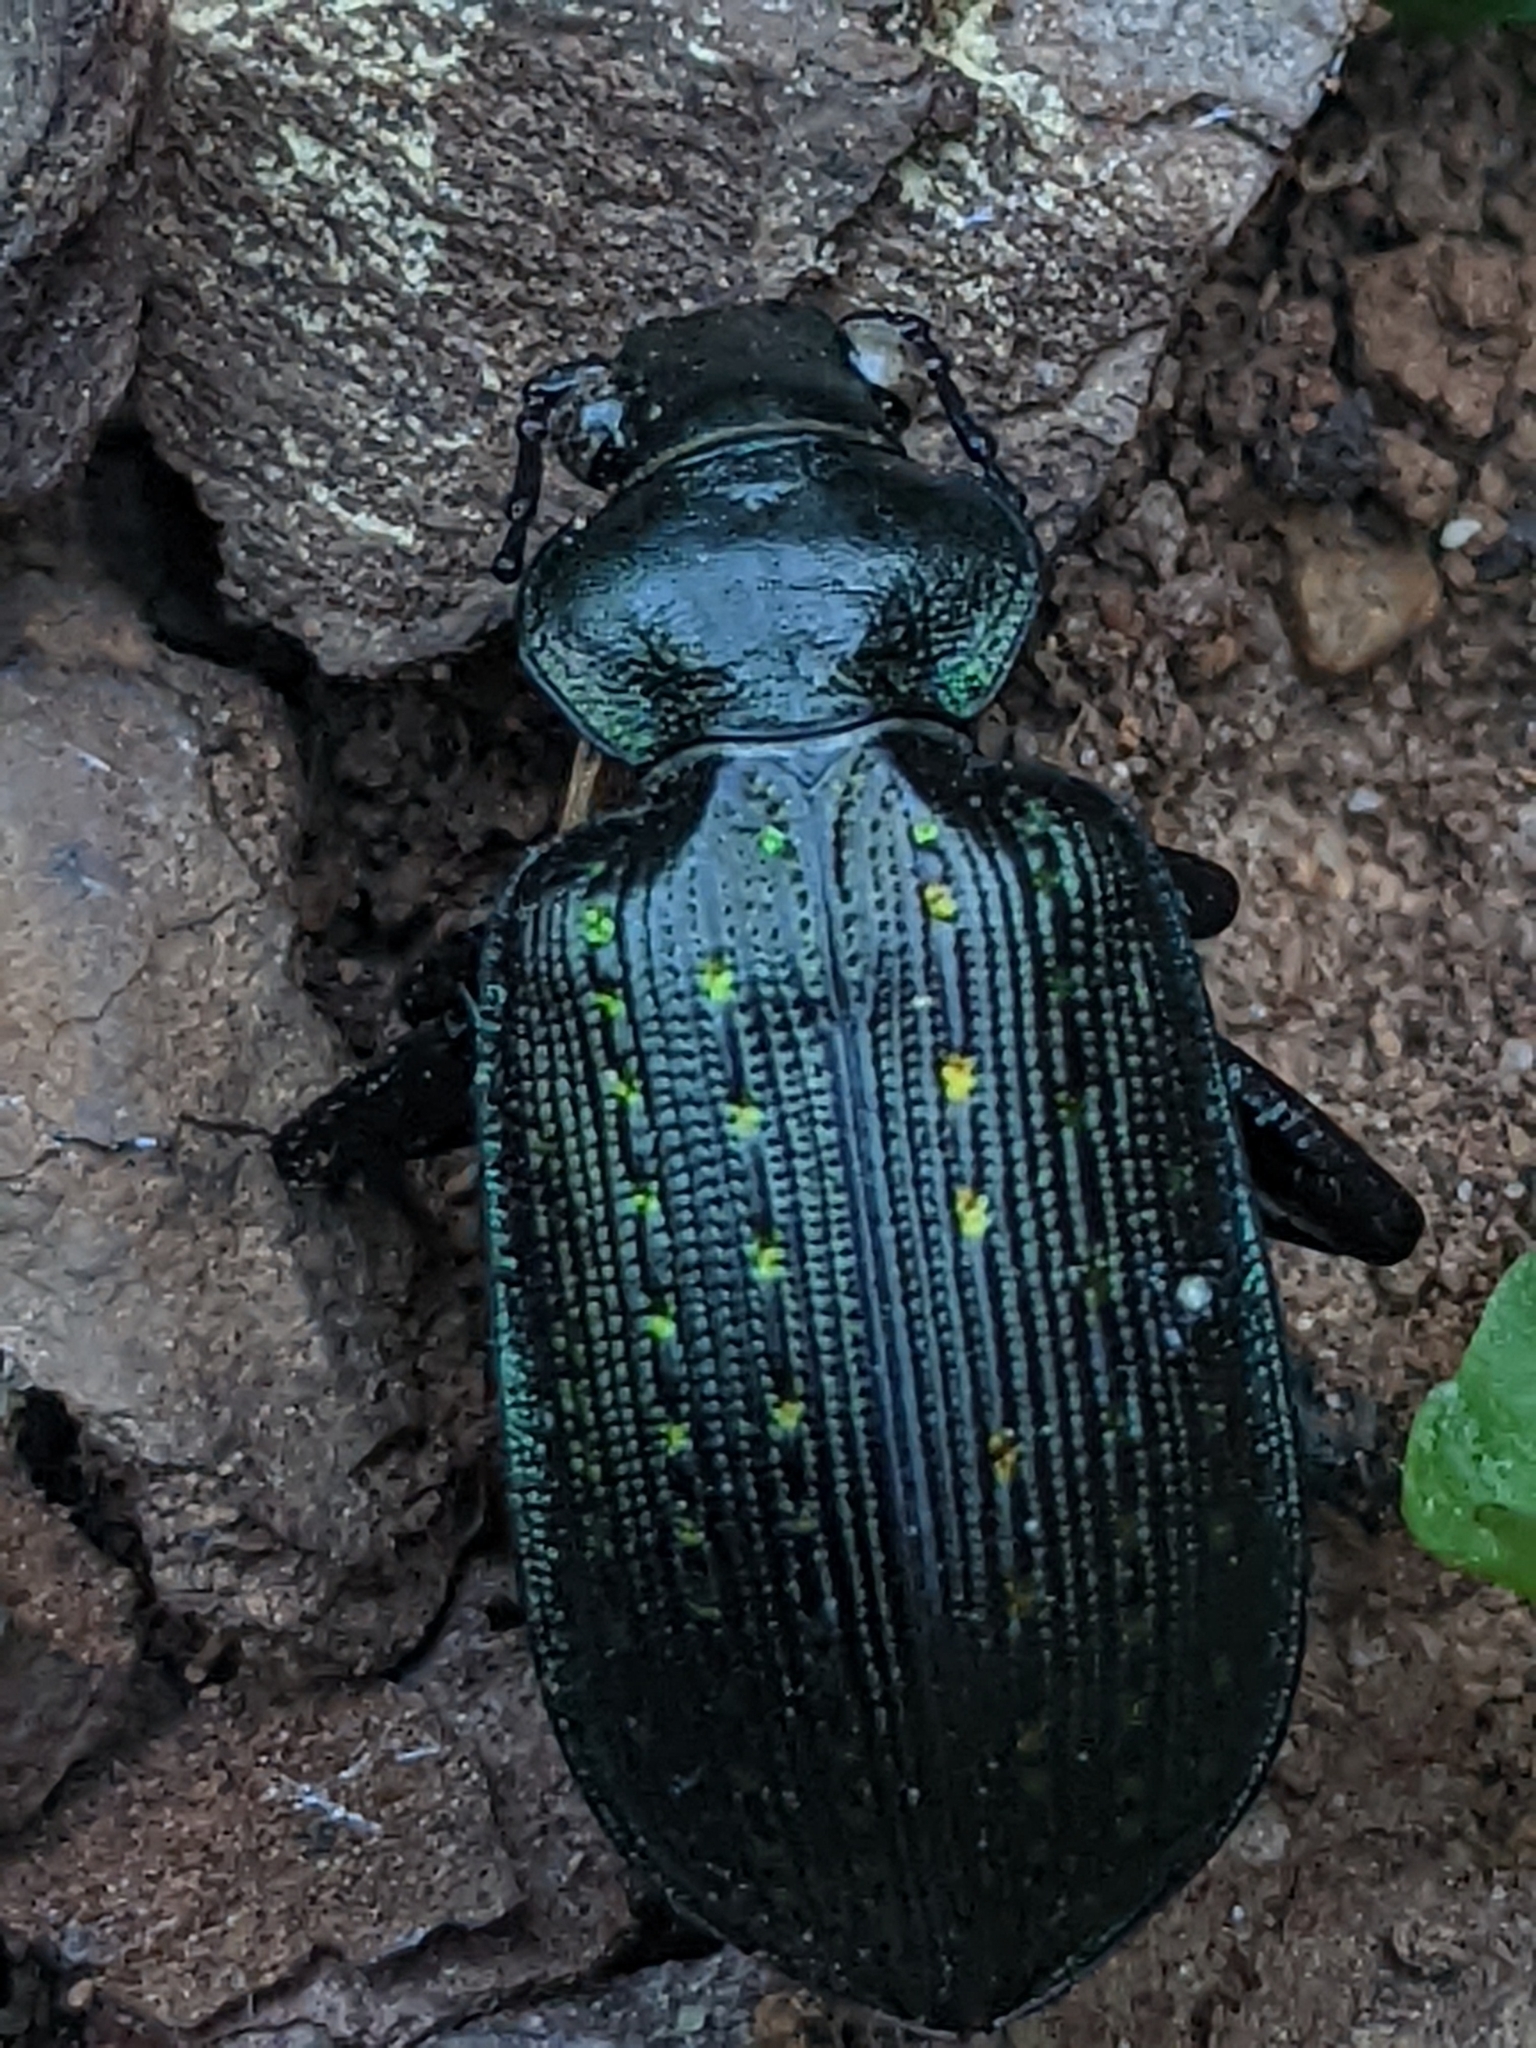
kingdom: Animalia
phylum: Arthropoda
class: Insecta
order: Coleoptera
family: Carabidae
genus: Calosoma
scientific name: Calosoma sayi
